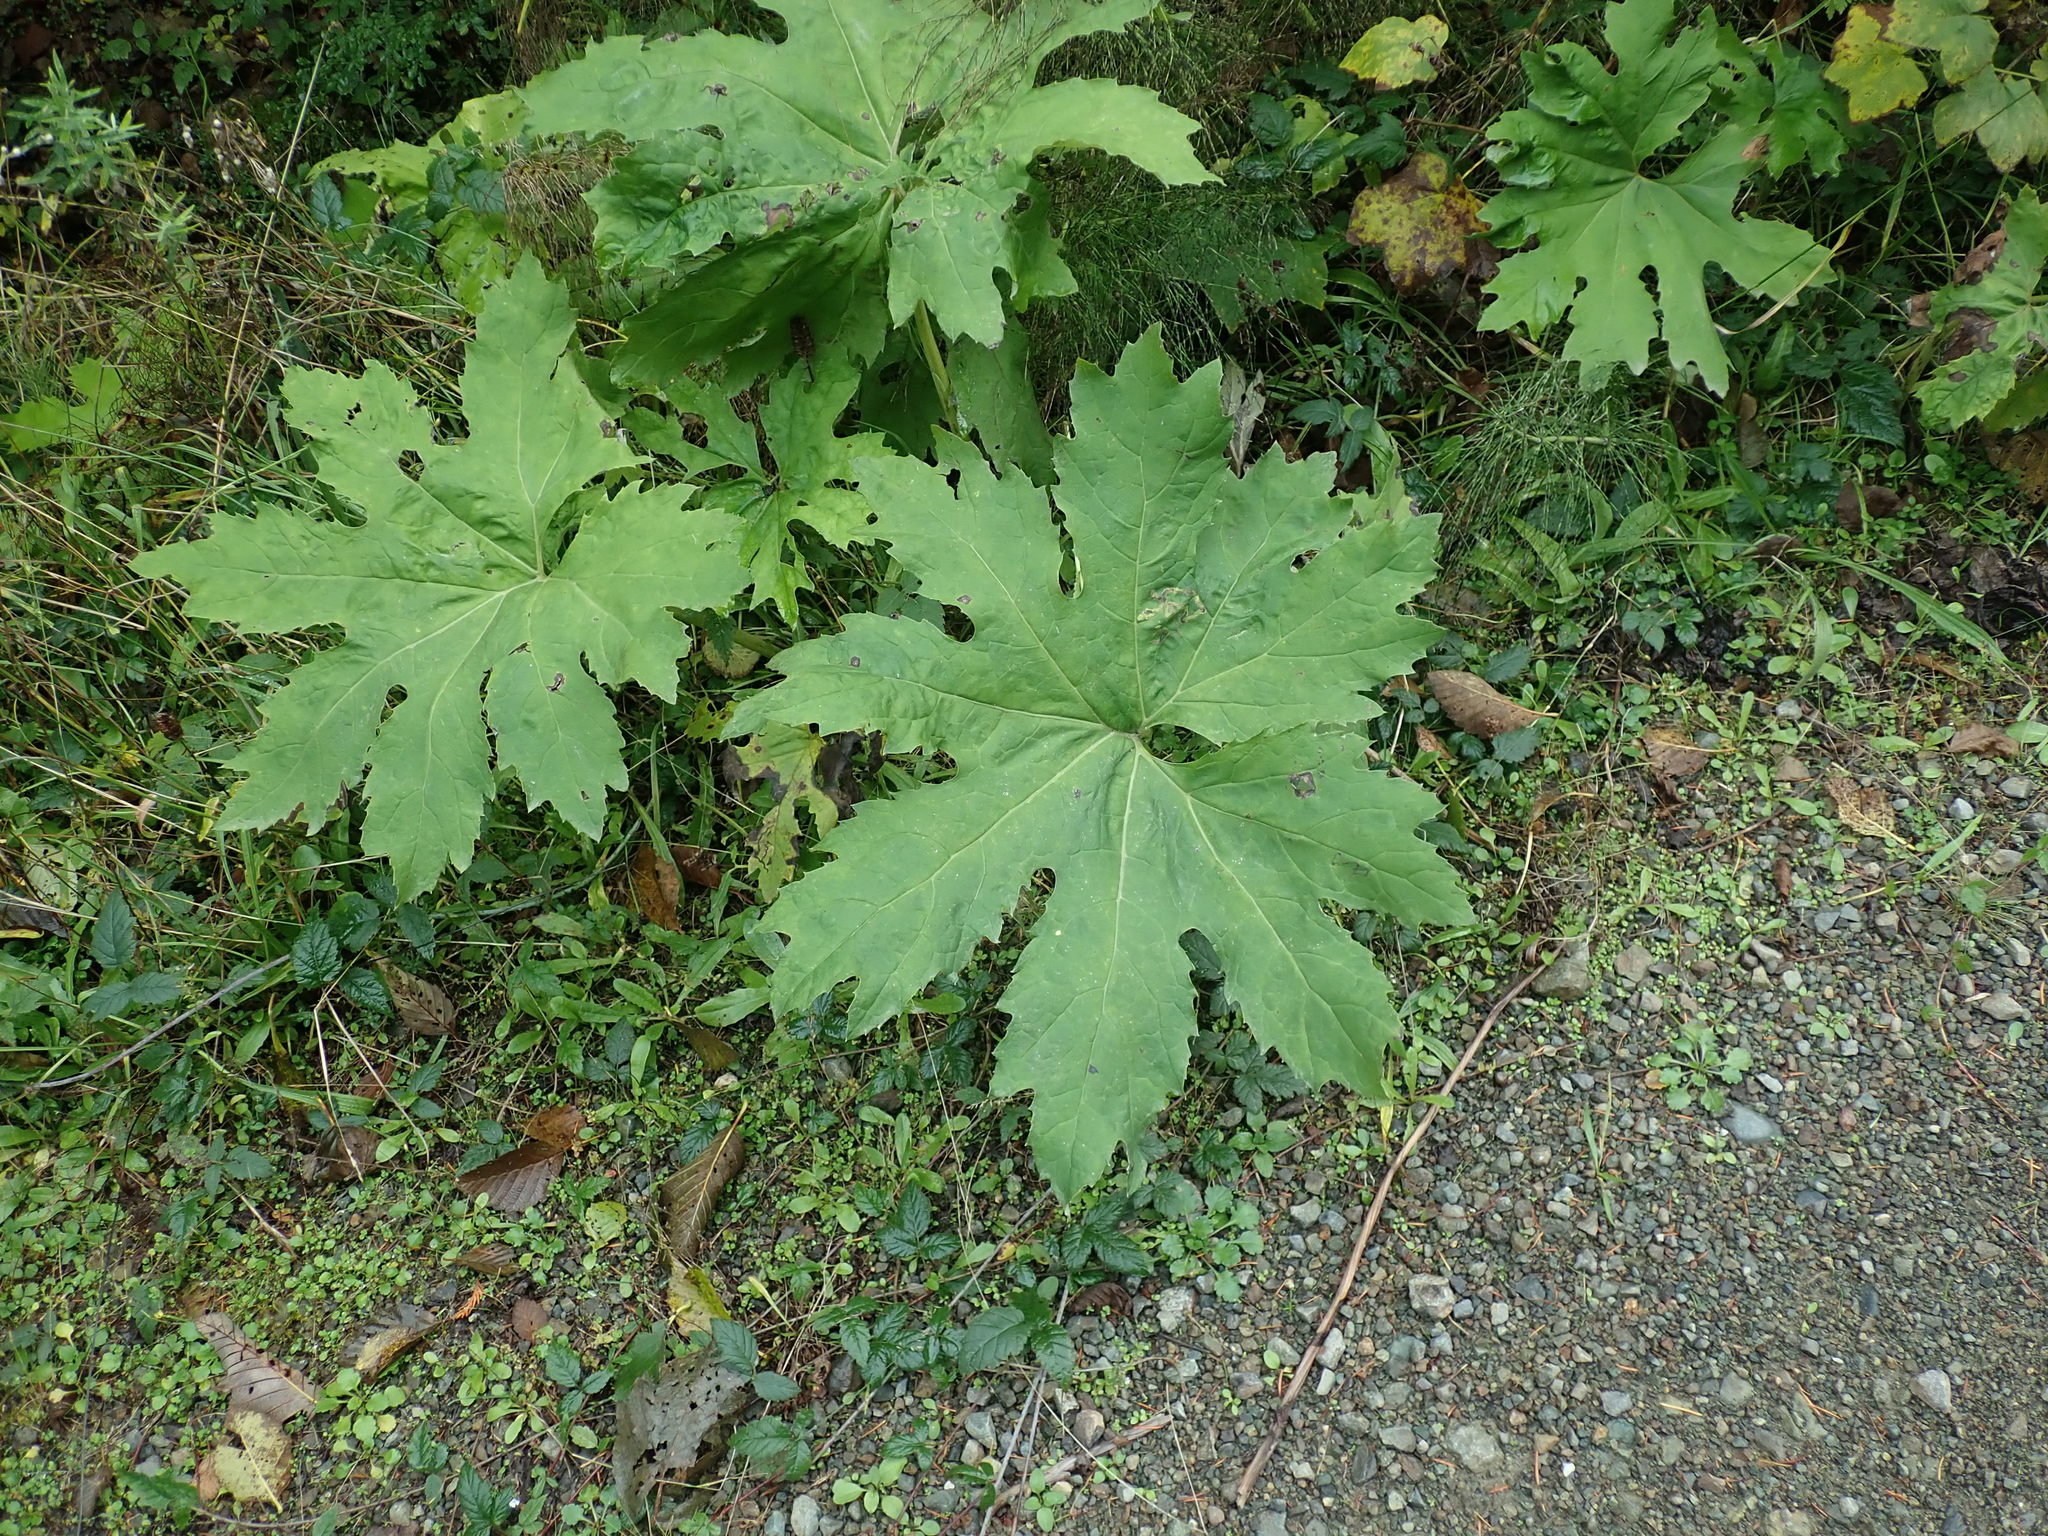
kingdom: Plantae
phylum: Tracheophyta
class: Magnoliopsida
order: Asterales
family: Asteraceae
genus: Petasites
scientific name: Petasites frigidus
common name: Arctic butterbur
